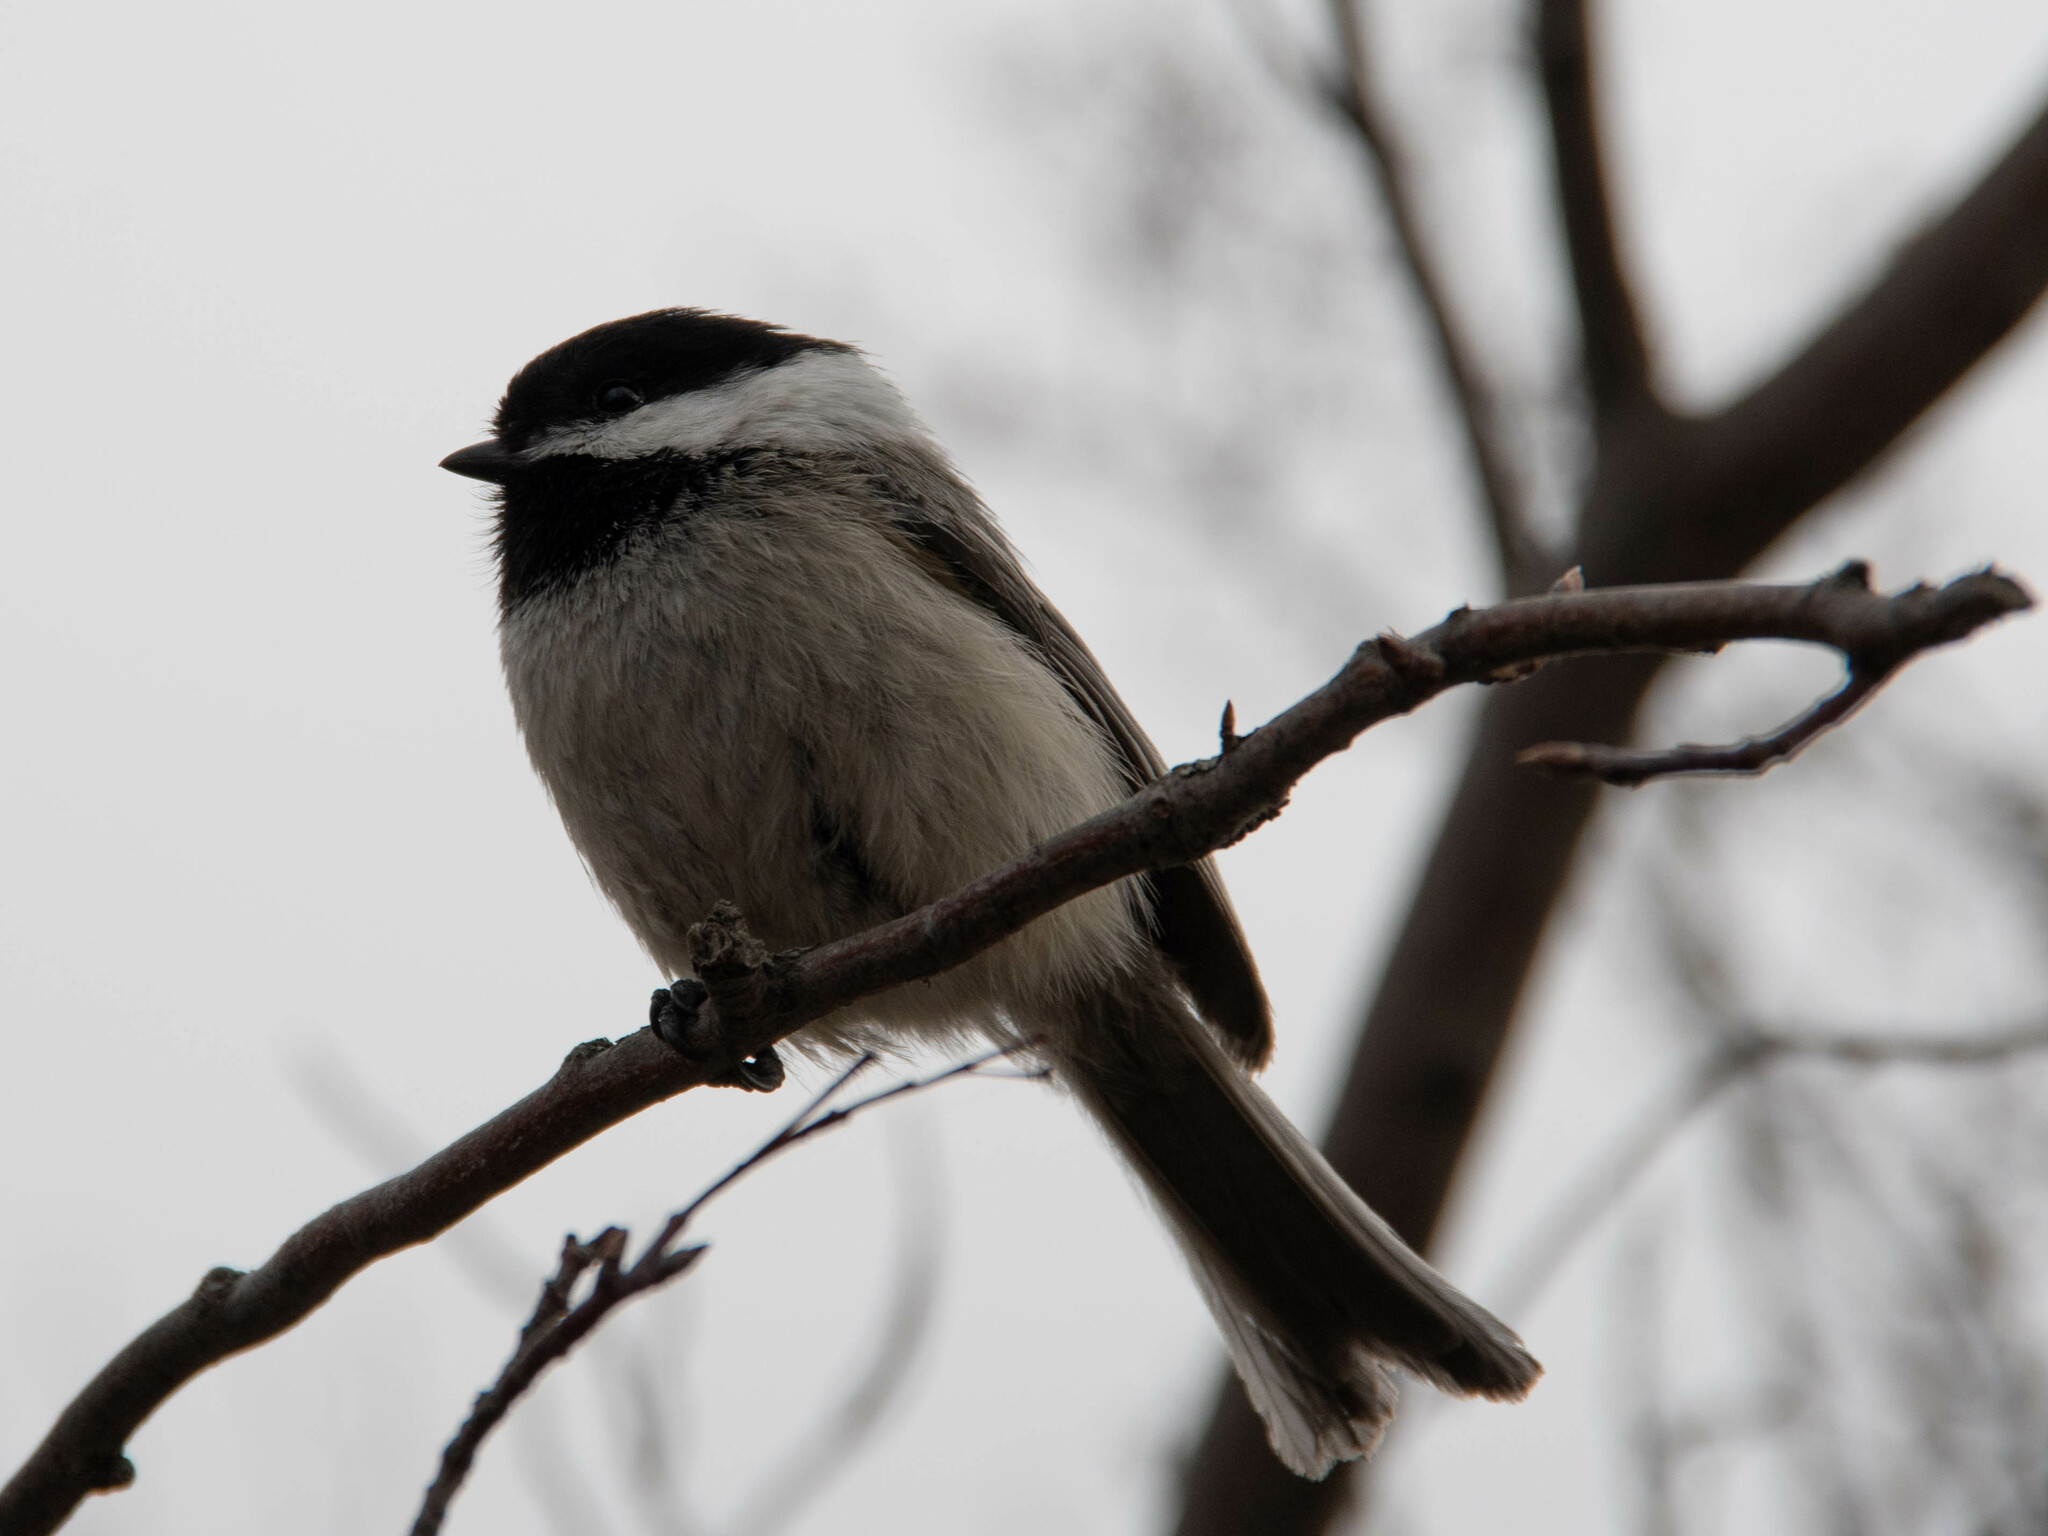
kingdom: Animalia
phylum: Chordata
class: Aves
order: Passeriformes
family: Paridae
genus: Poecile
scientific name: Poecile atricapillus
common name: Black-capped chickadee
